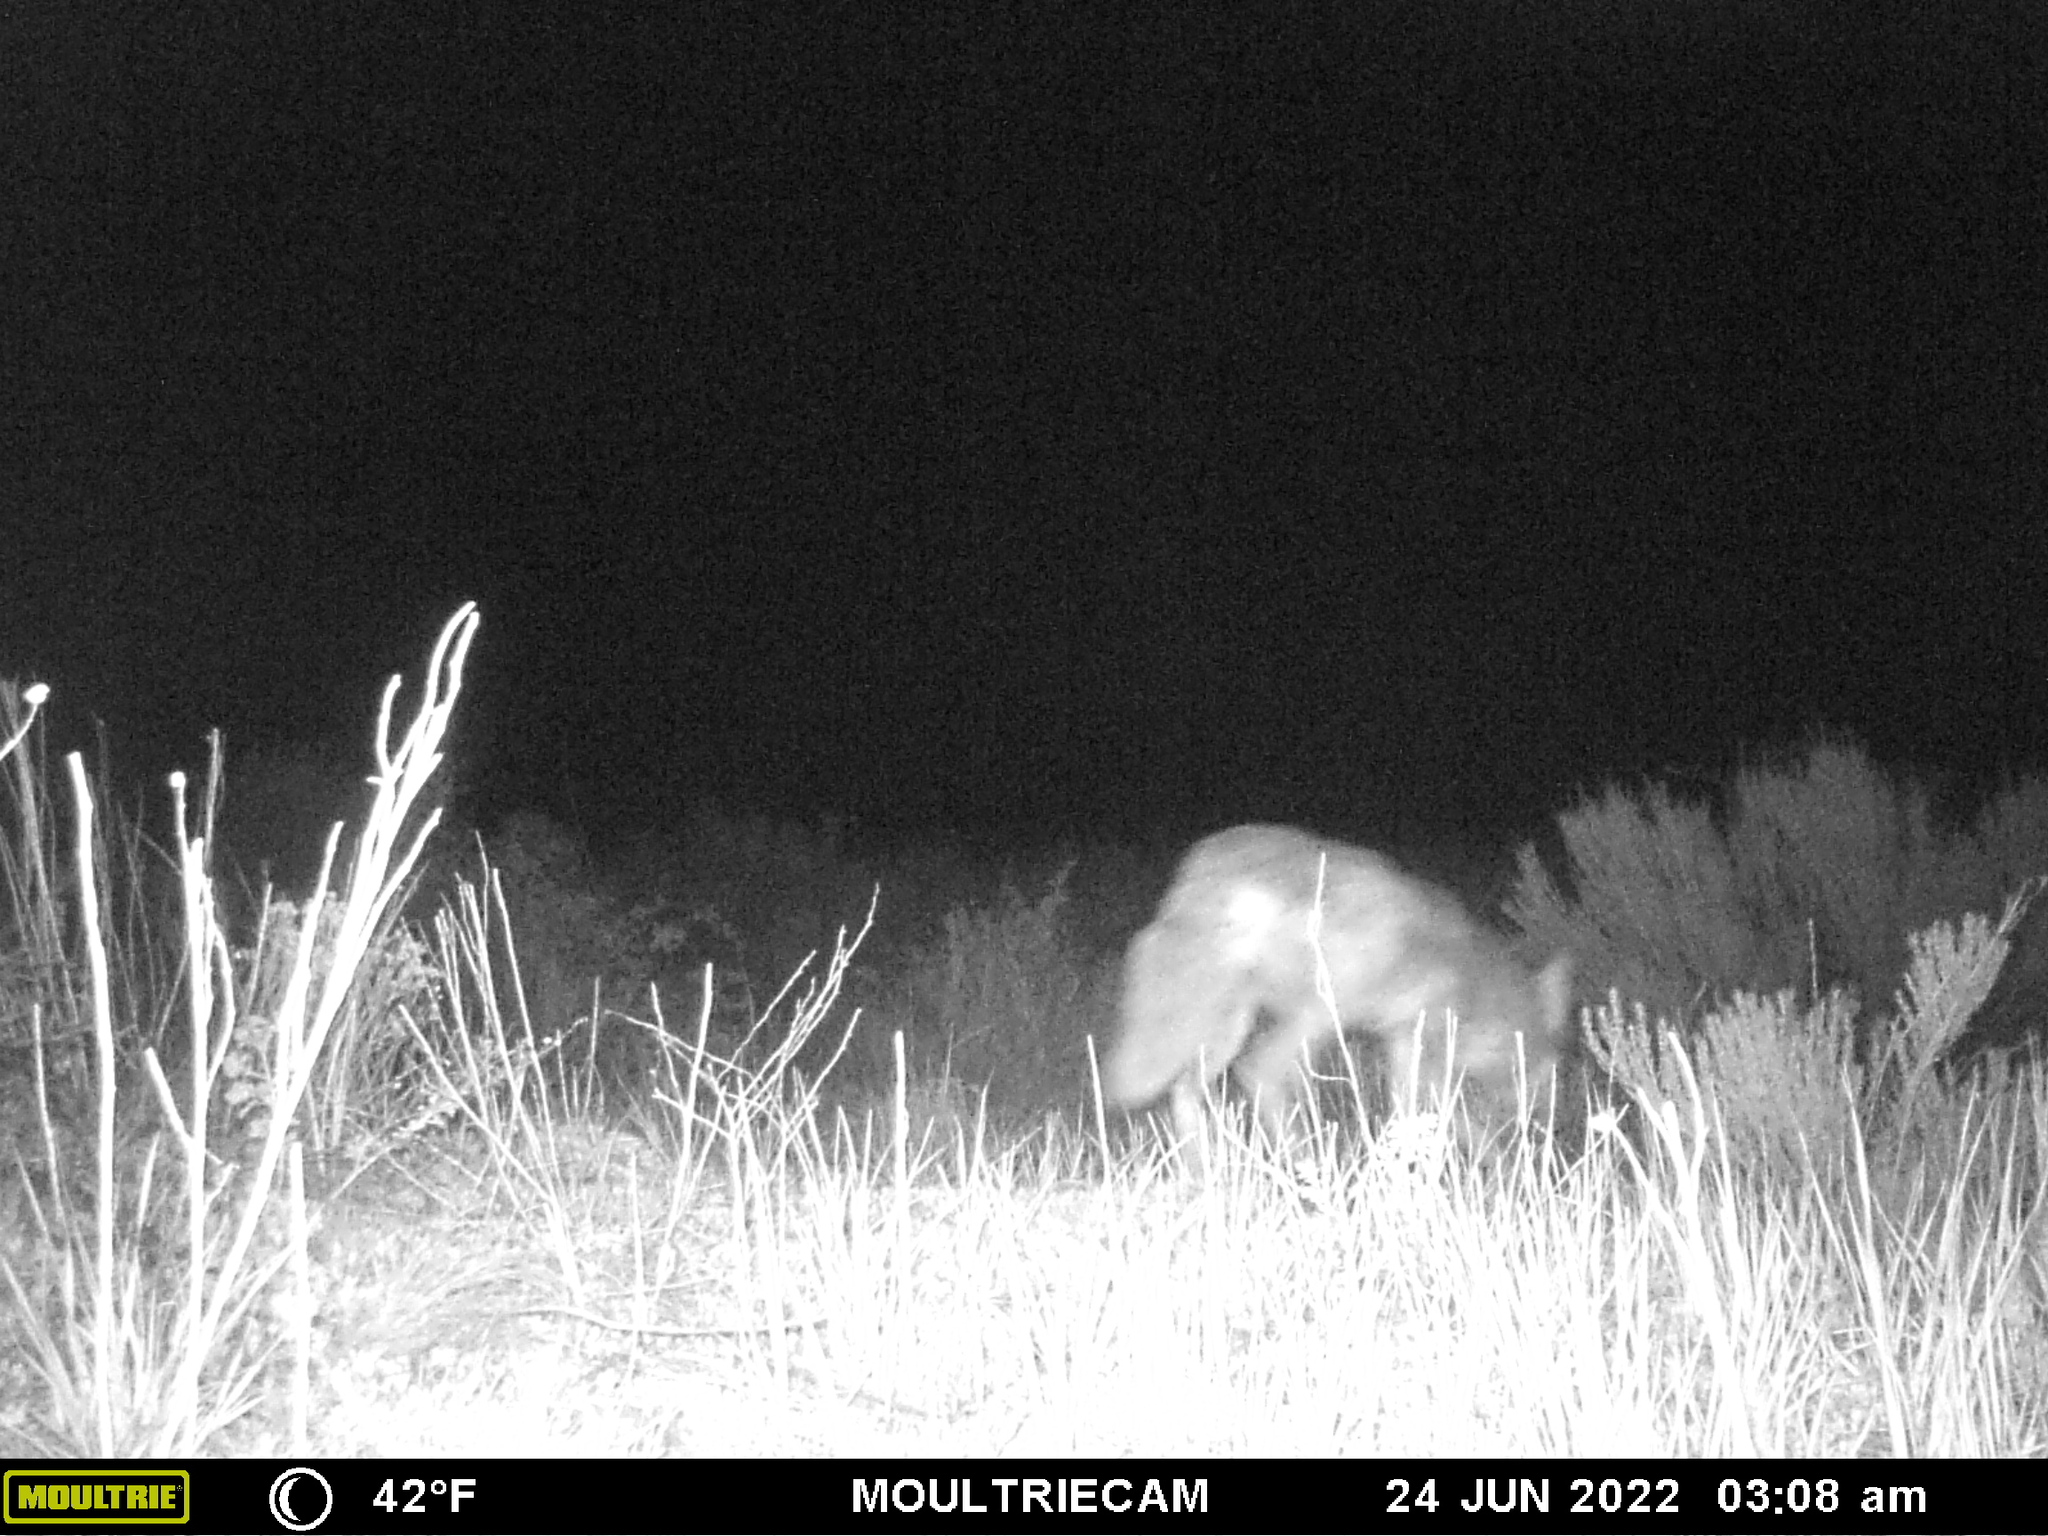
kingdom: Animalia
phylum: Chordata
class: Mammalia
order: Carnivora
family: Canidae
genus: Canis
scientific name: Canis latrans
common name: Coyote
